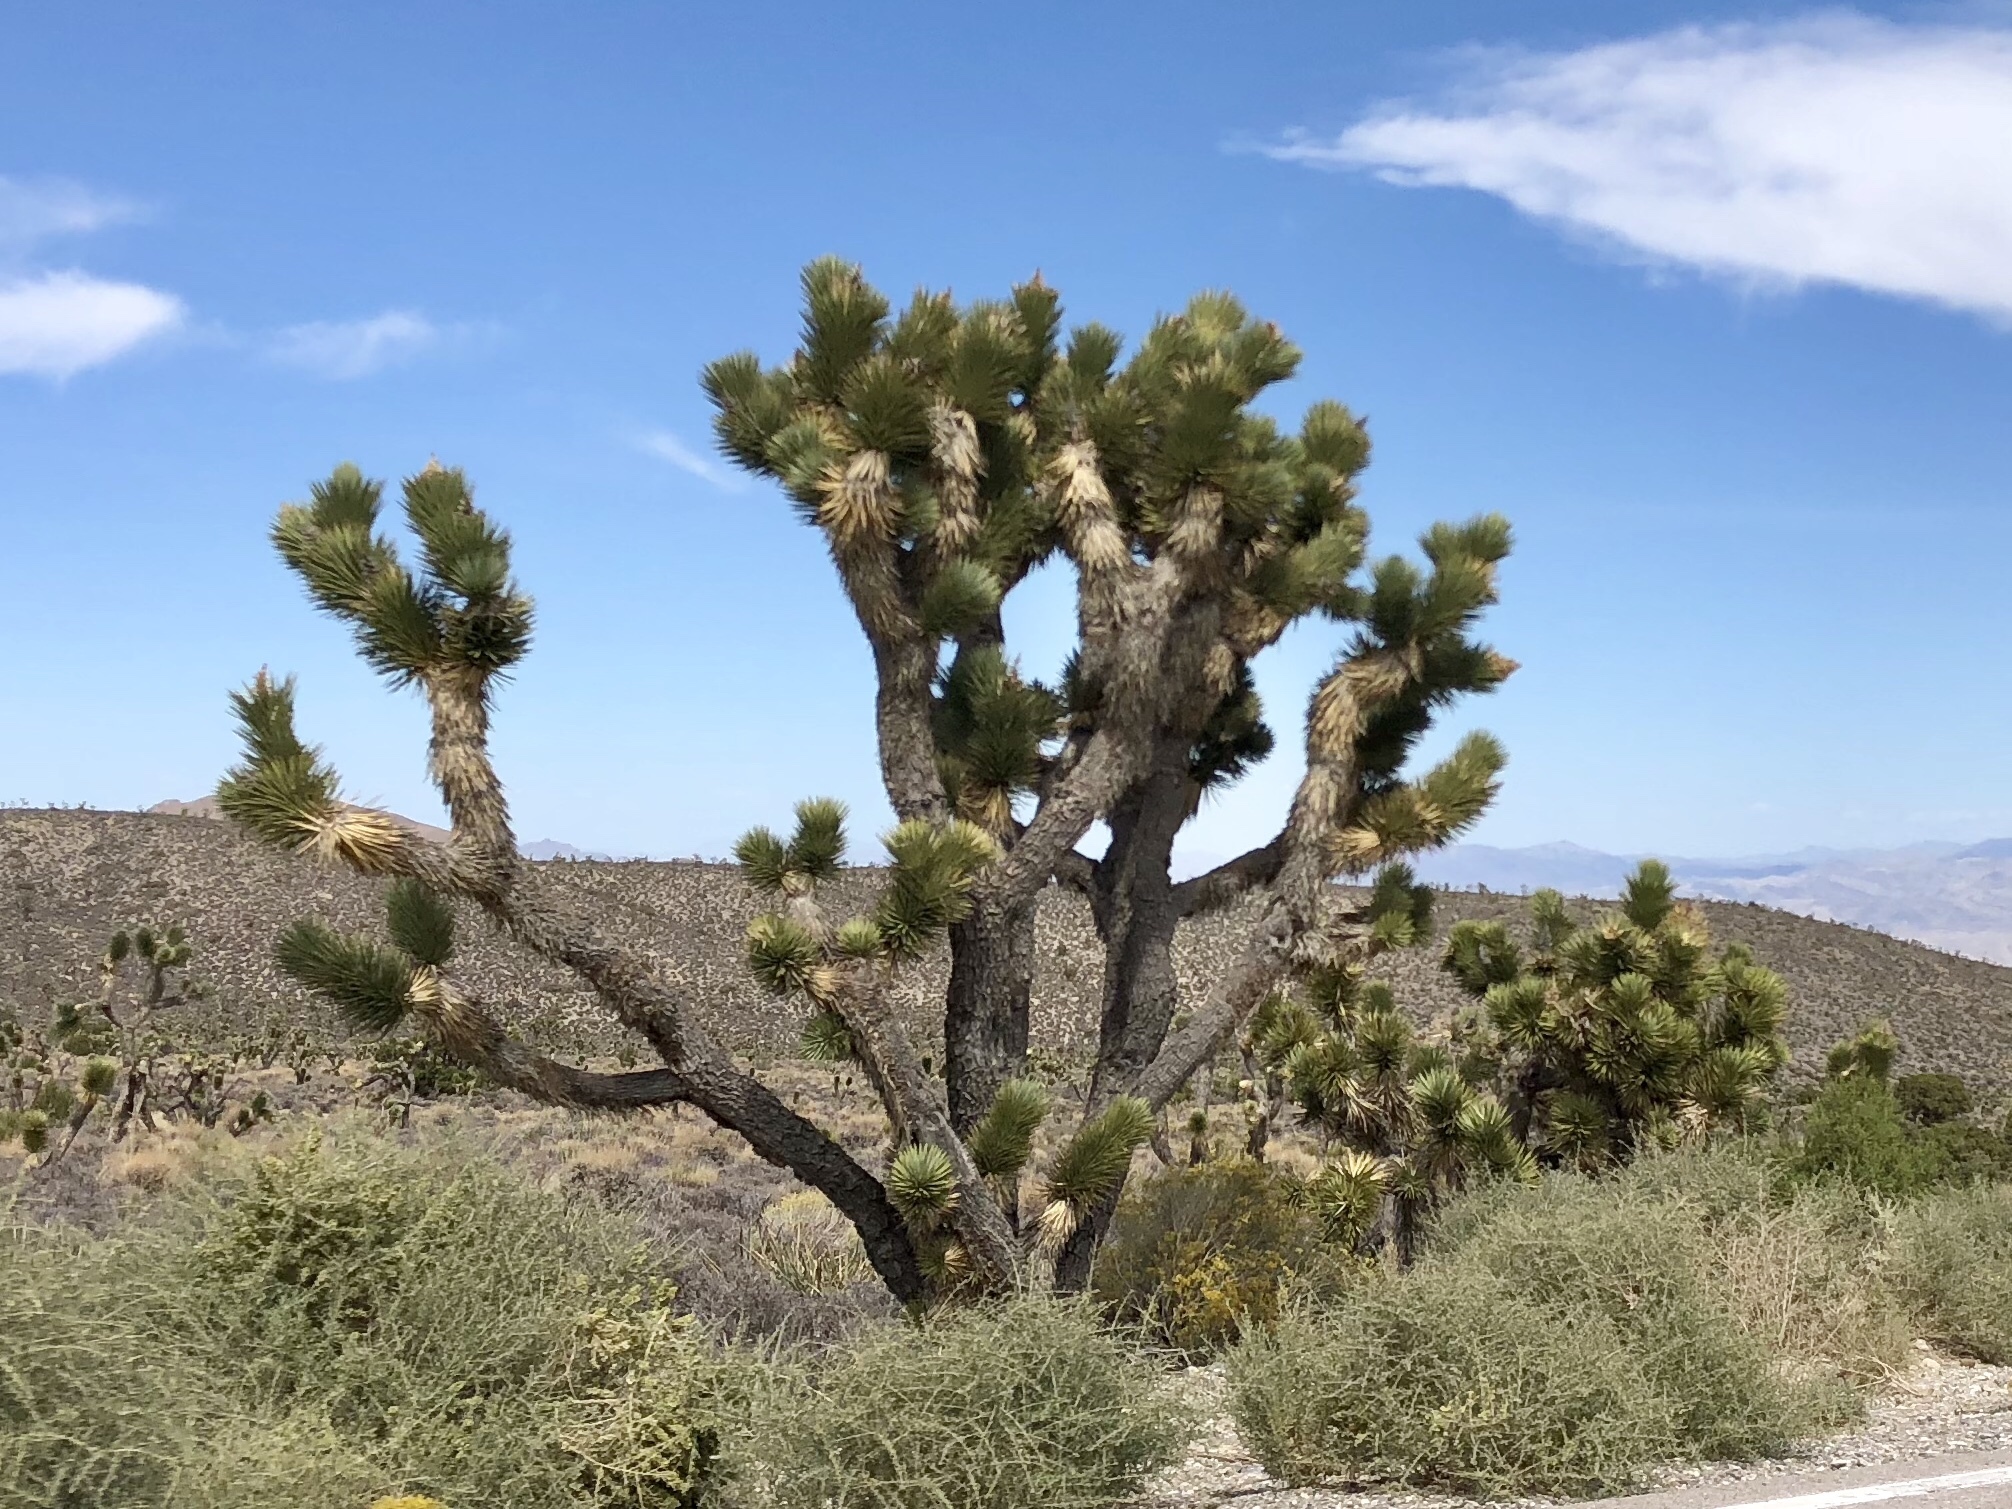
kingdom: Plantae
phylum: Tracheophyta
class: Liliopsida
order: Asparagales
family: Asparagaceae
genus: Yucca
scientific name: Yucca brevifolia
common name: Joshua tree
